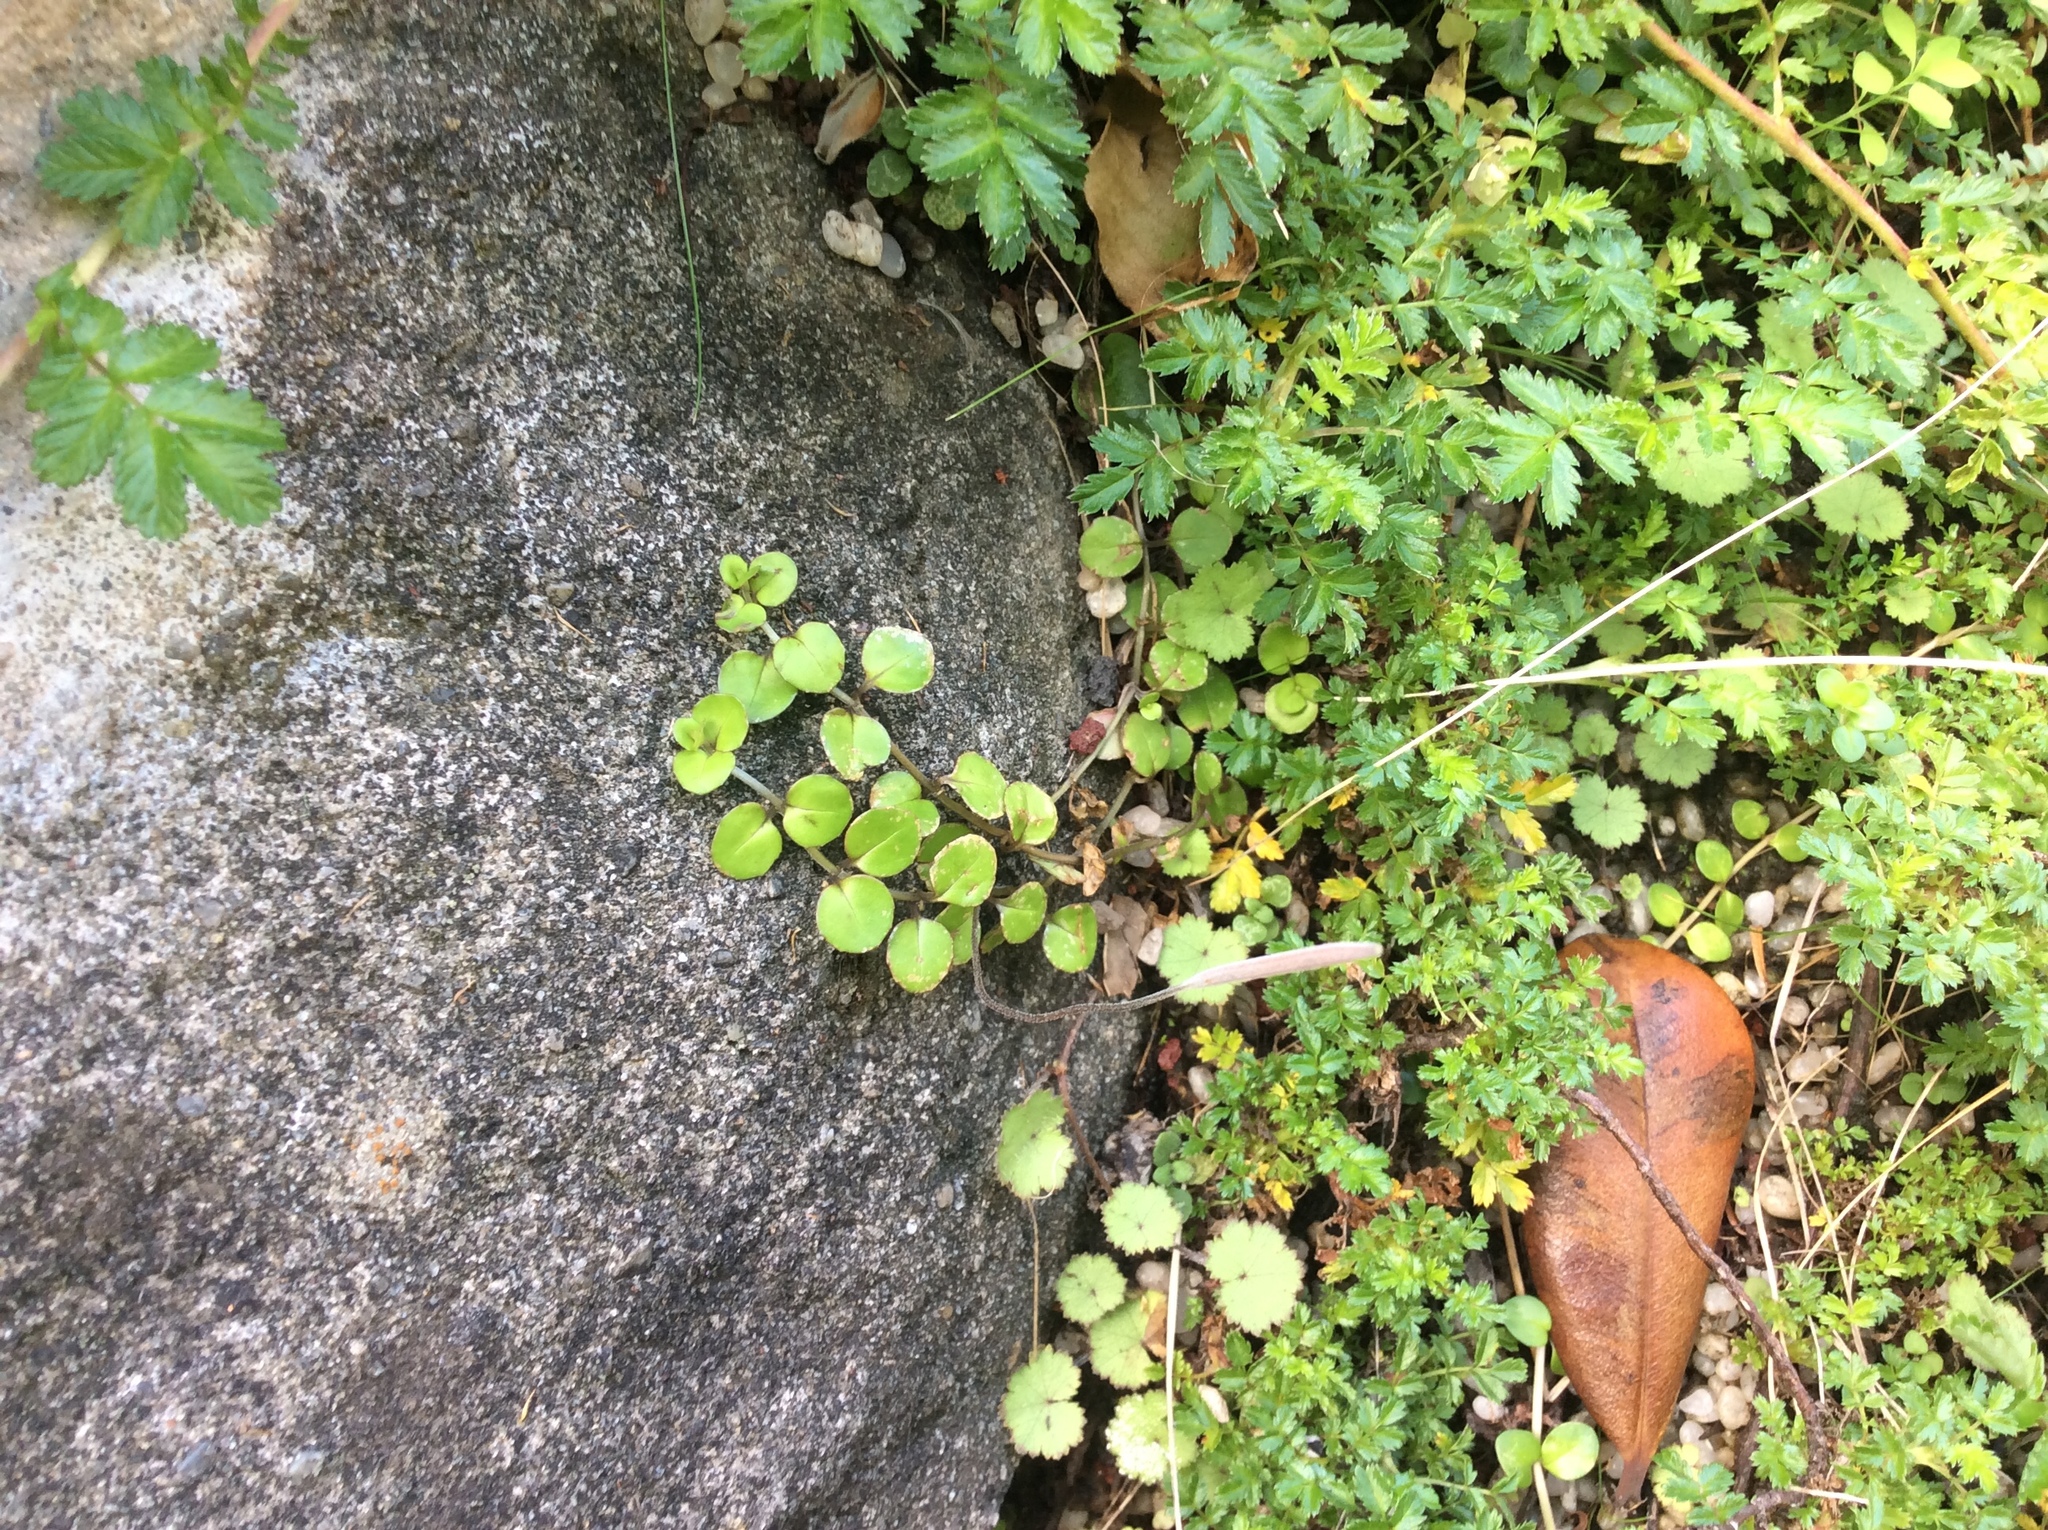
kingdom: Plantae
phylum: Tracheophyta
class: Magnoliopsida
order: Myrtales
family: Onagraceae
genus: Epilobium
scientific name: Epilobium nummularifolium
